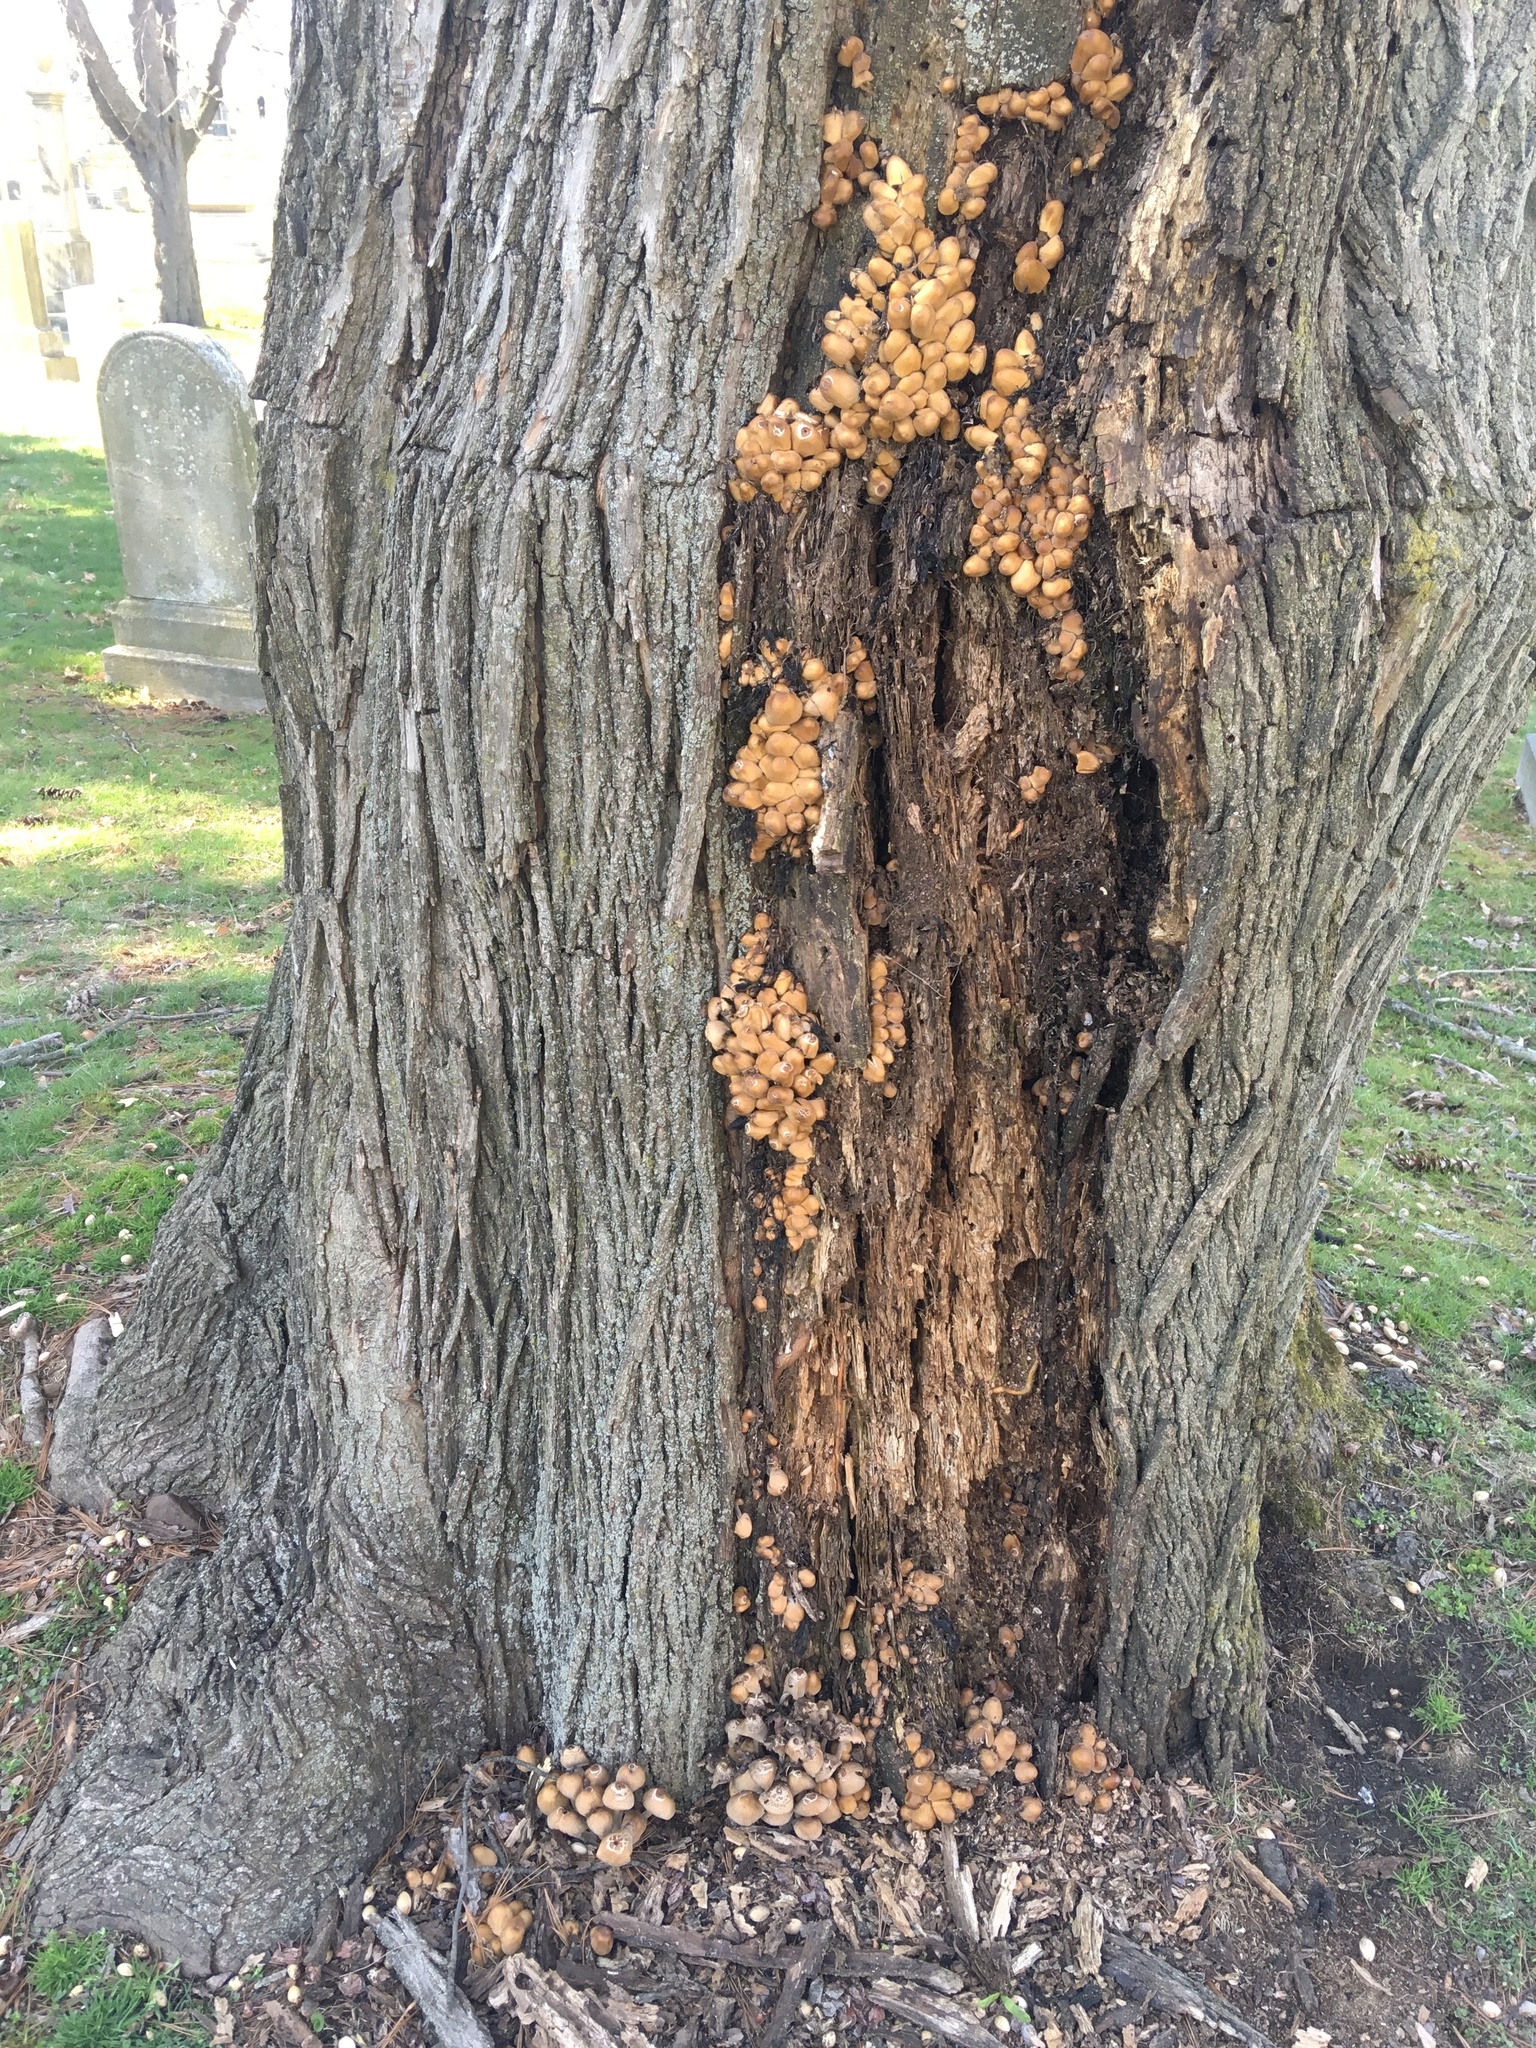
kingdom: Fungi
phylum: Basidiomycota
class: Agaricomycetes
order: Agaricales
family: Psathyrellaceae
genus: Coprinellus
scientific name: Coprinellus micaceus
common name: Glistening ink-cap
